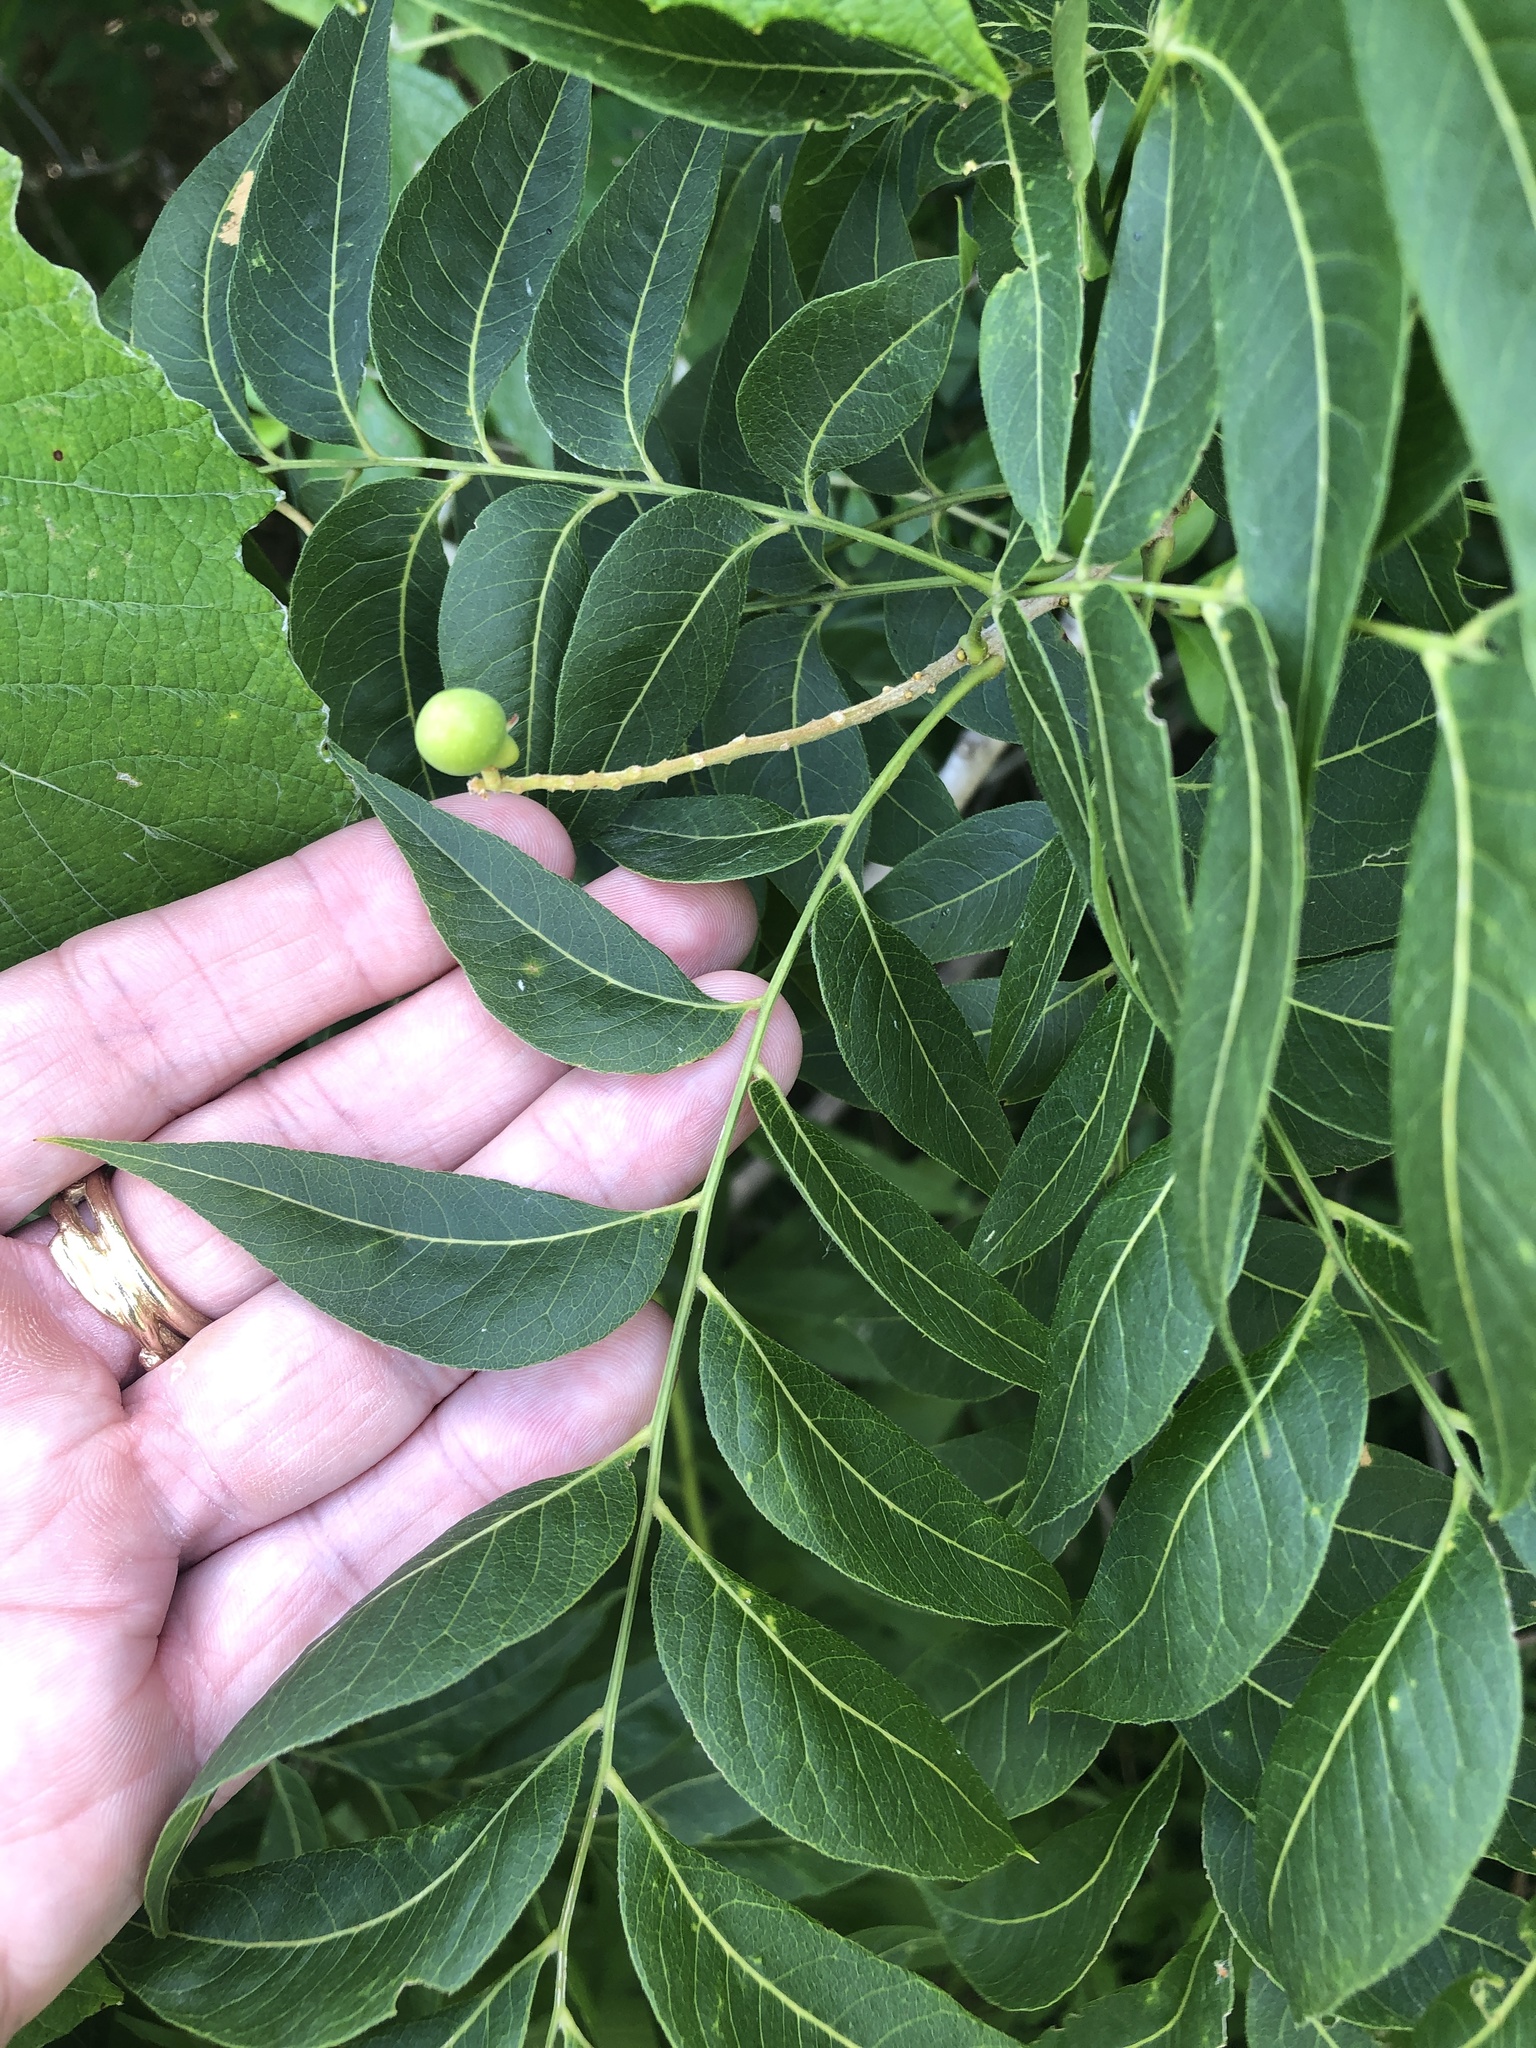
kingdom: Plantae
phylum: Tracheophyta
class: Magnoliopsida
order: Sapindales
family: Sapindaceae
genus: Sapindus
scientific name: Sapindus drummondii
